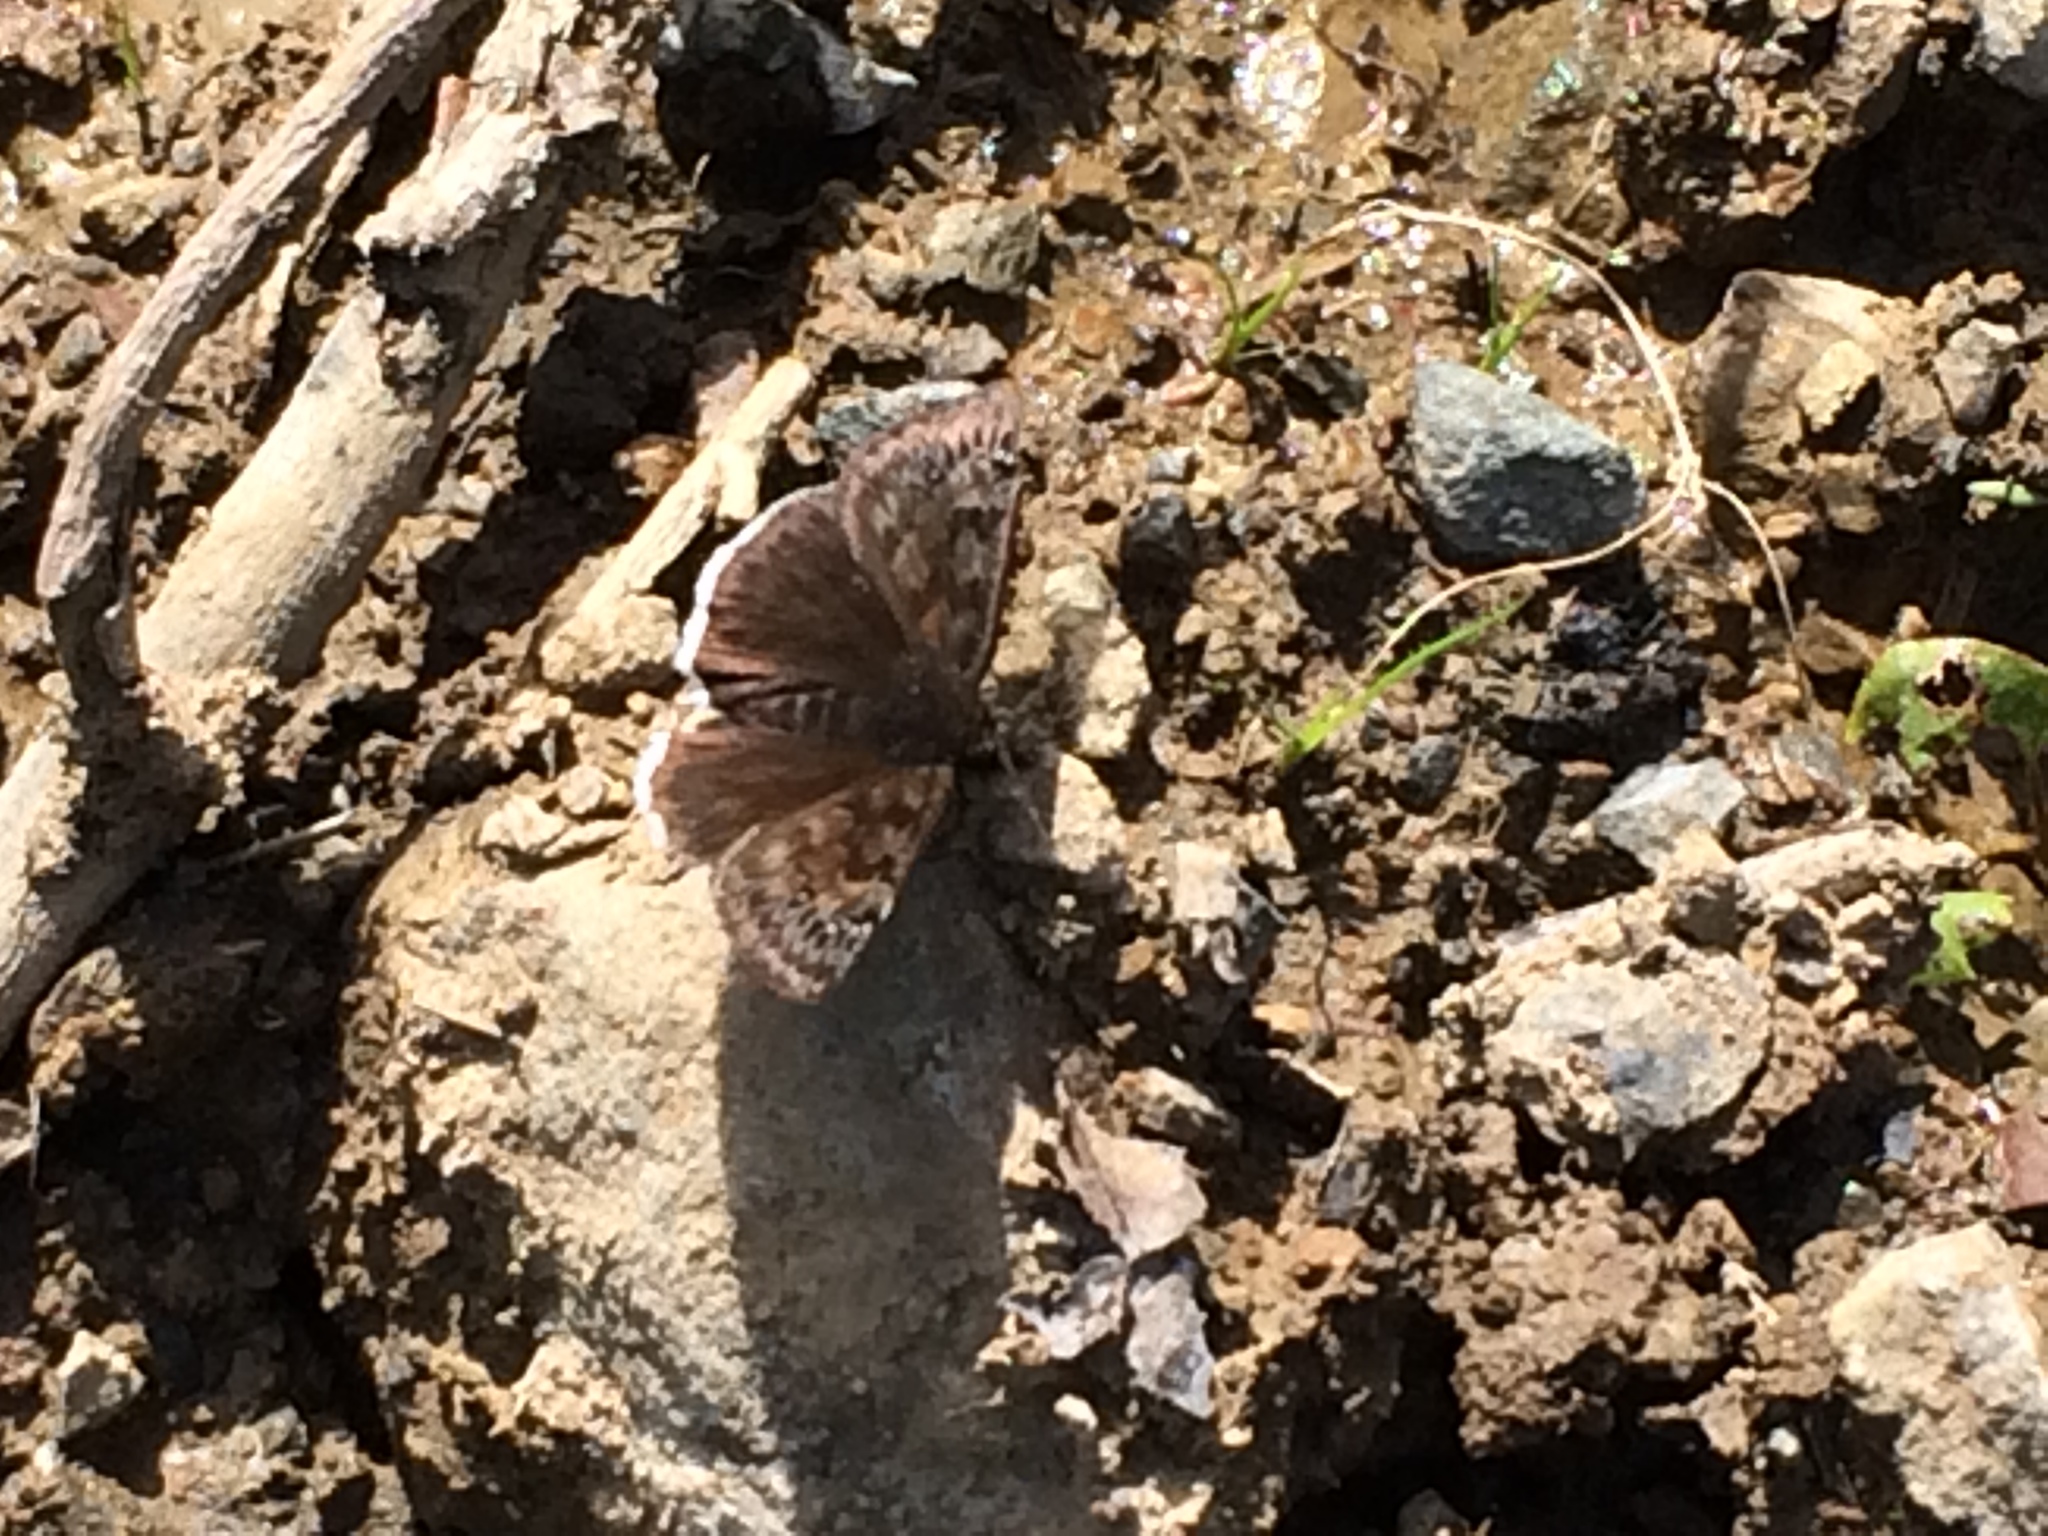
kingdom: Animalia
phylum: Arthropoda
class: Insecta
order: Lepidoptera
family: Hesperiidae
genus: Erynnis
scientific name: Erynnis tristis
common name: Mournful duskywing
